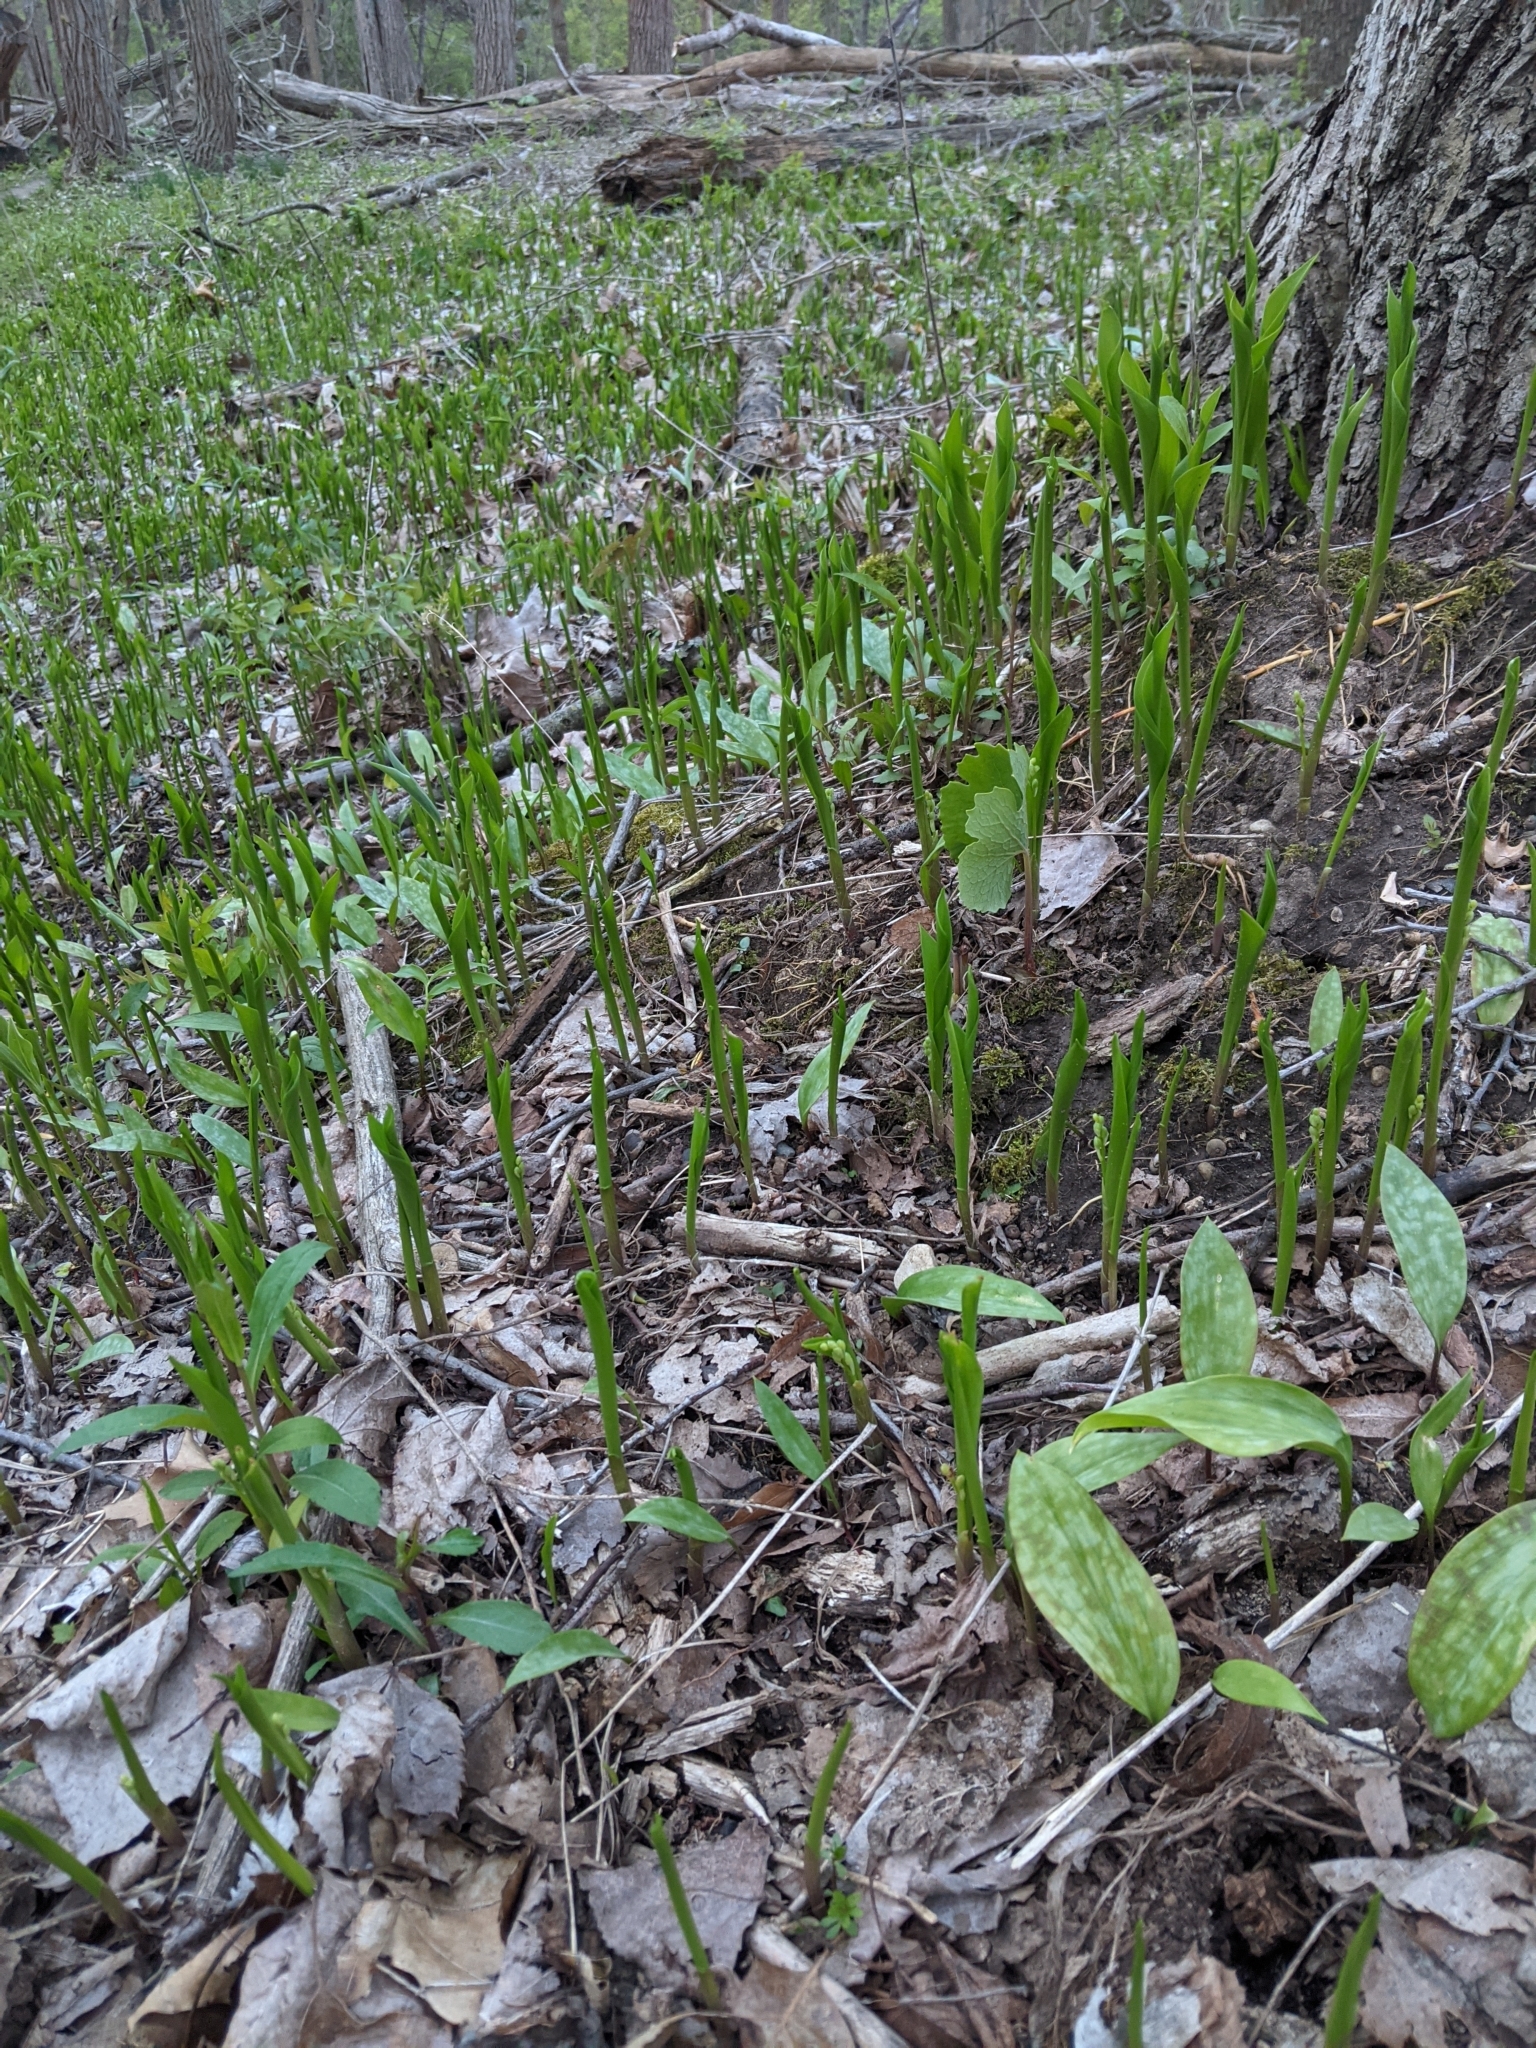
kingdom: Plantae
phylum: Tracheophyta
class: Liliopsida
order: Asparagales
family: Asparagaceae
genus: Convallaria
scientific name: Convallaria majalis
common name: Lily-of-the-valley
